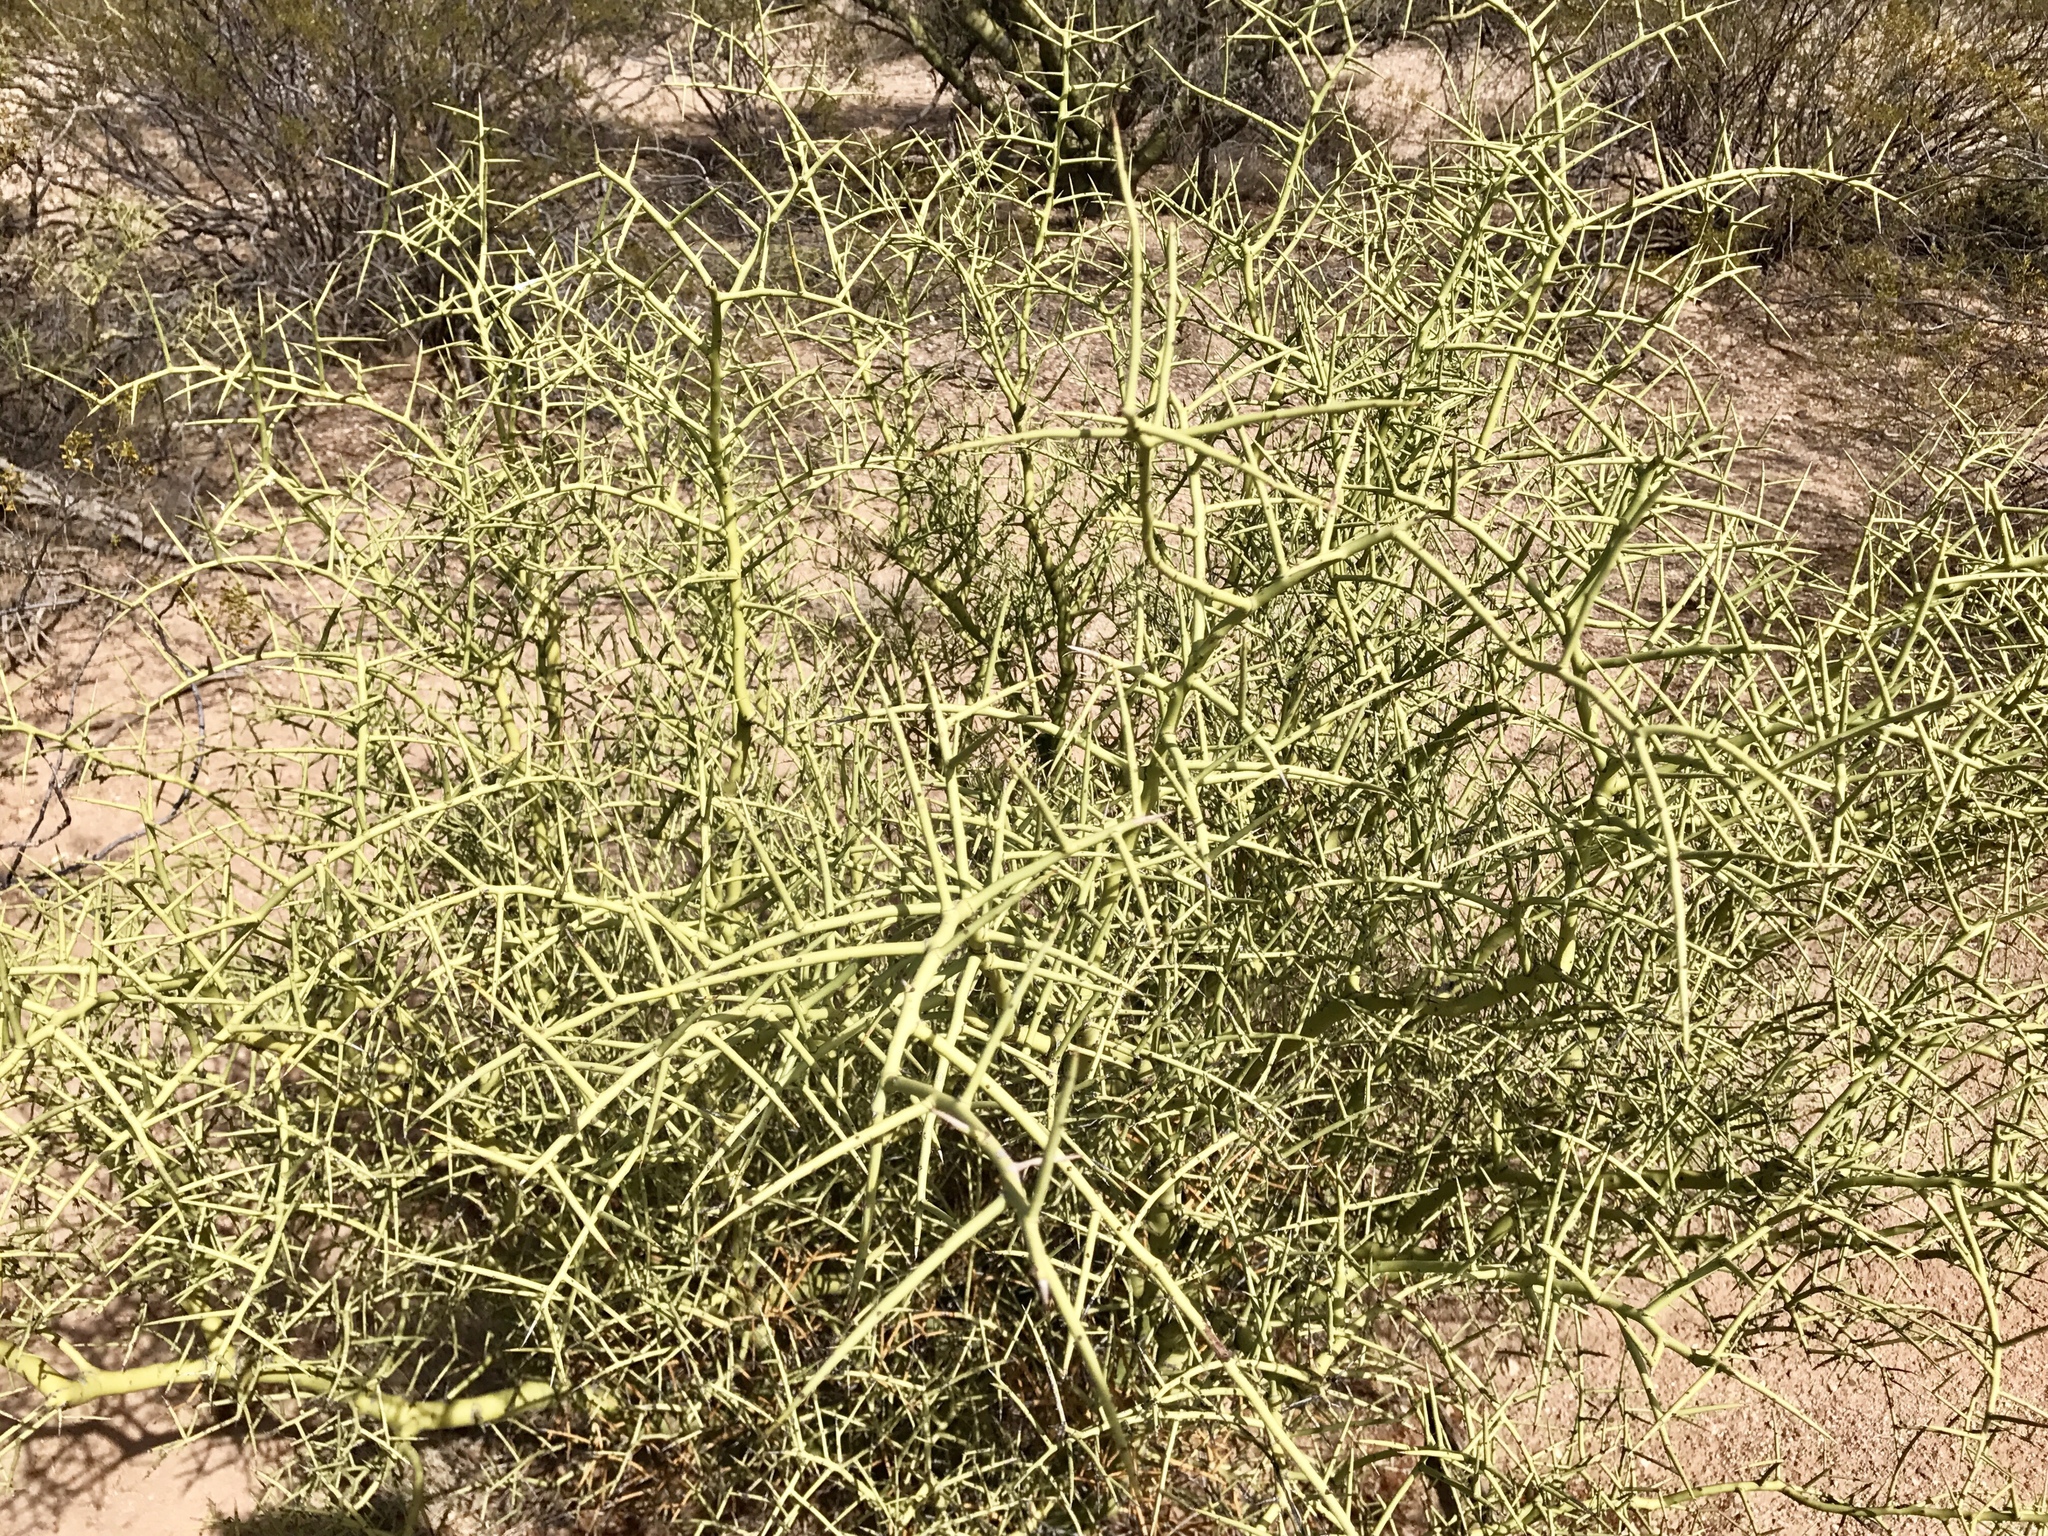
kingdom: Plantae
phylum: Tracheophyta
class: Magnoliopsida
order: Fabales
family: Fabaceae
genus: Parkinsonia
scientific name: Parkinsonia microphylla
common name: Yellow paloverde
